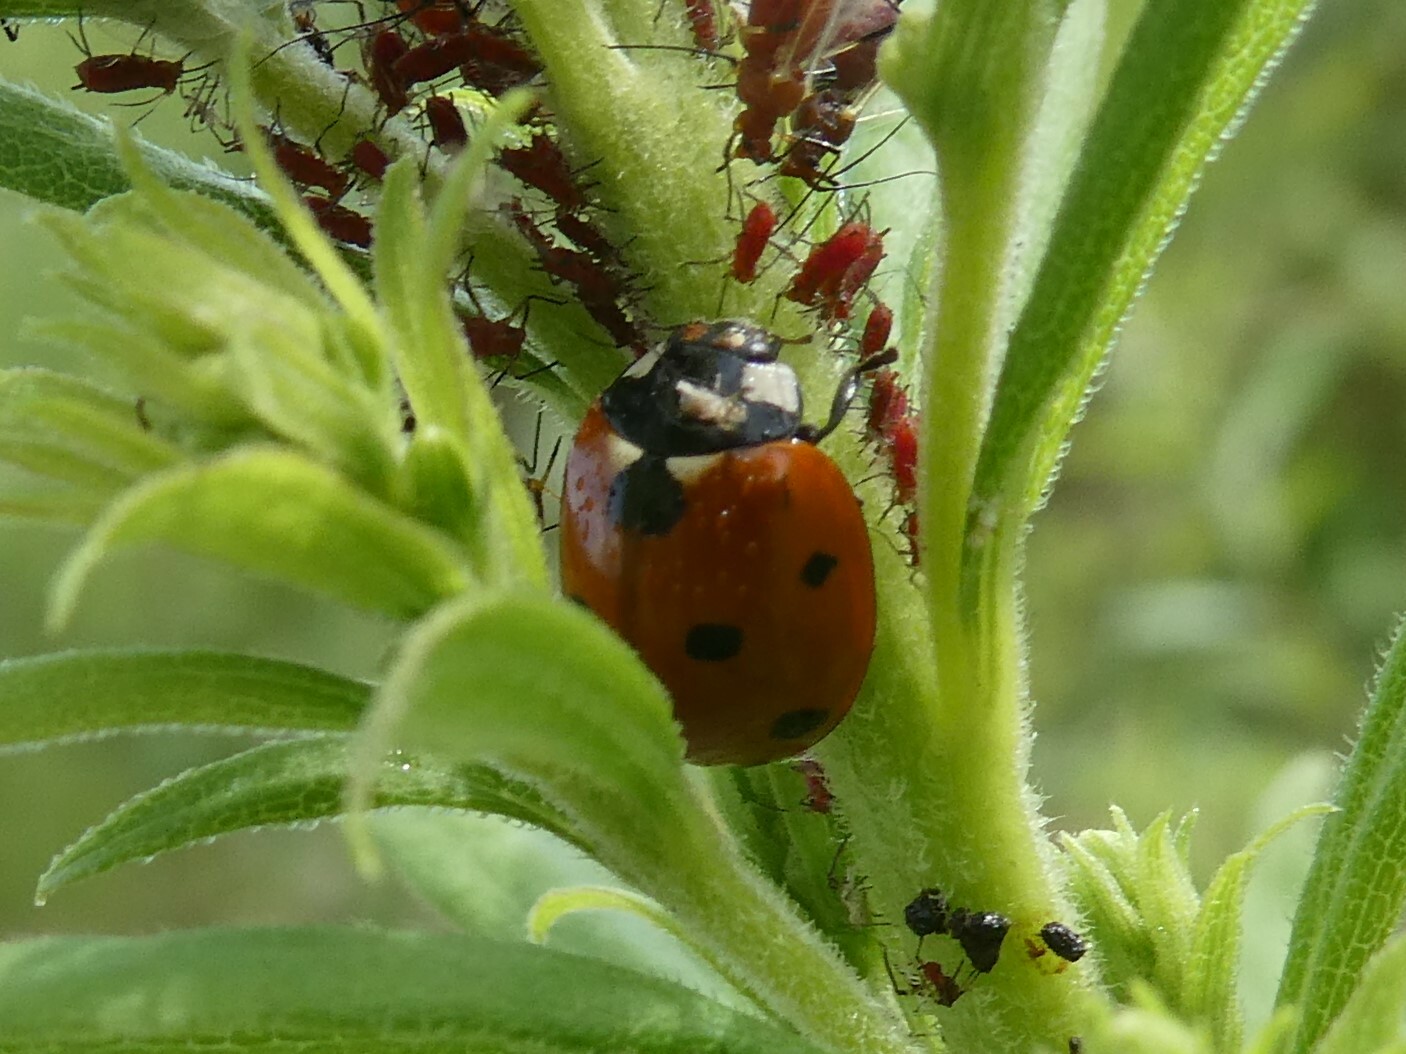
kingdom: Animalia
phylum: Arthropoda
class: Insecta
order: Coleoptera
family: Coccinellidae
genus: Coccinella
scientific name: Coccinella septempunctata
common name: Sevenspotted lady beetle
